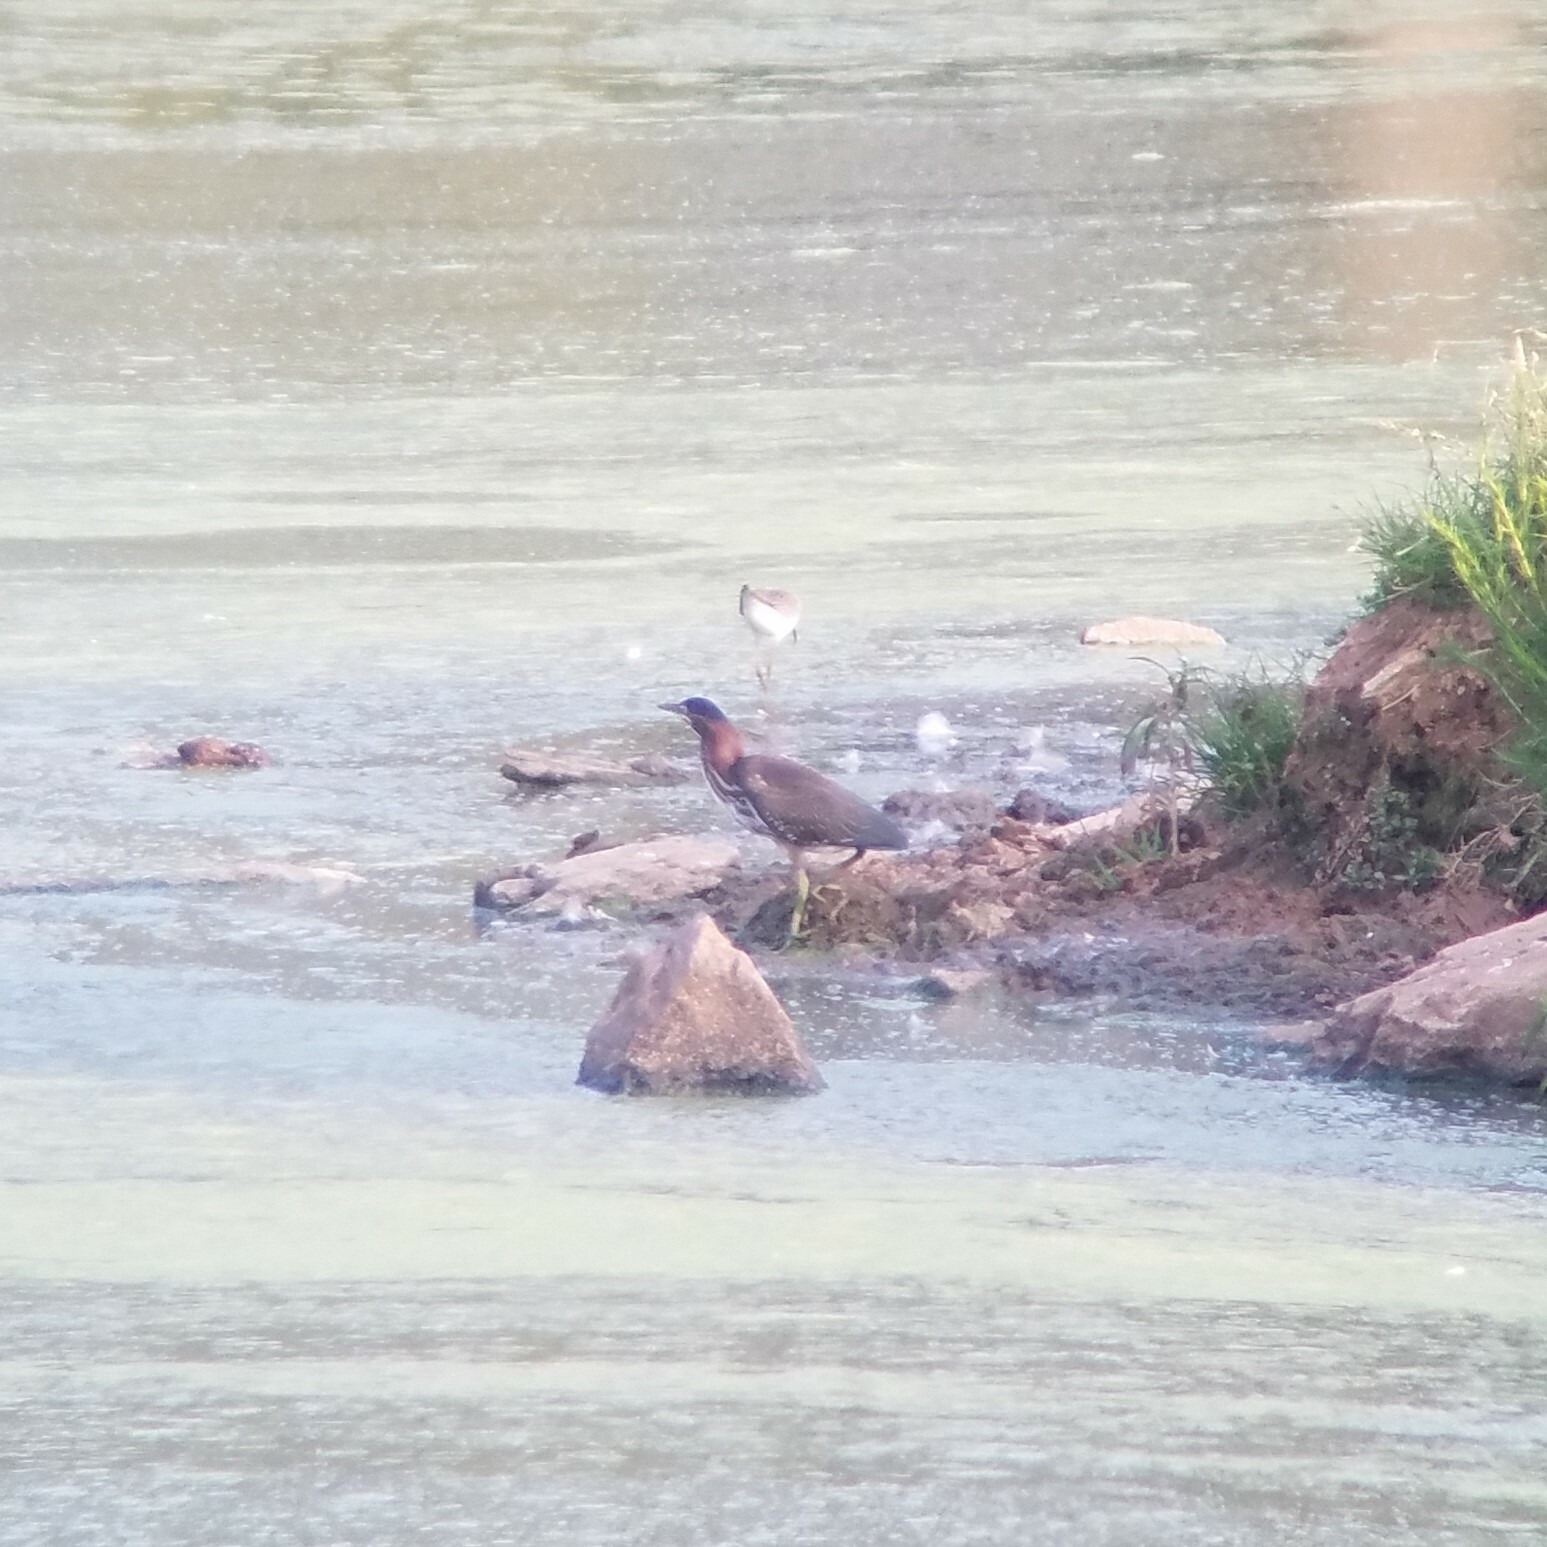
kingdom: Animalia
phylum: Chordata
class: Aves
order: Pelecaniformes
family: Ardeidae
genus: Butorides
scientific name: Butorides virescens
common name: Green heron
